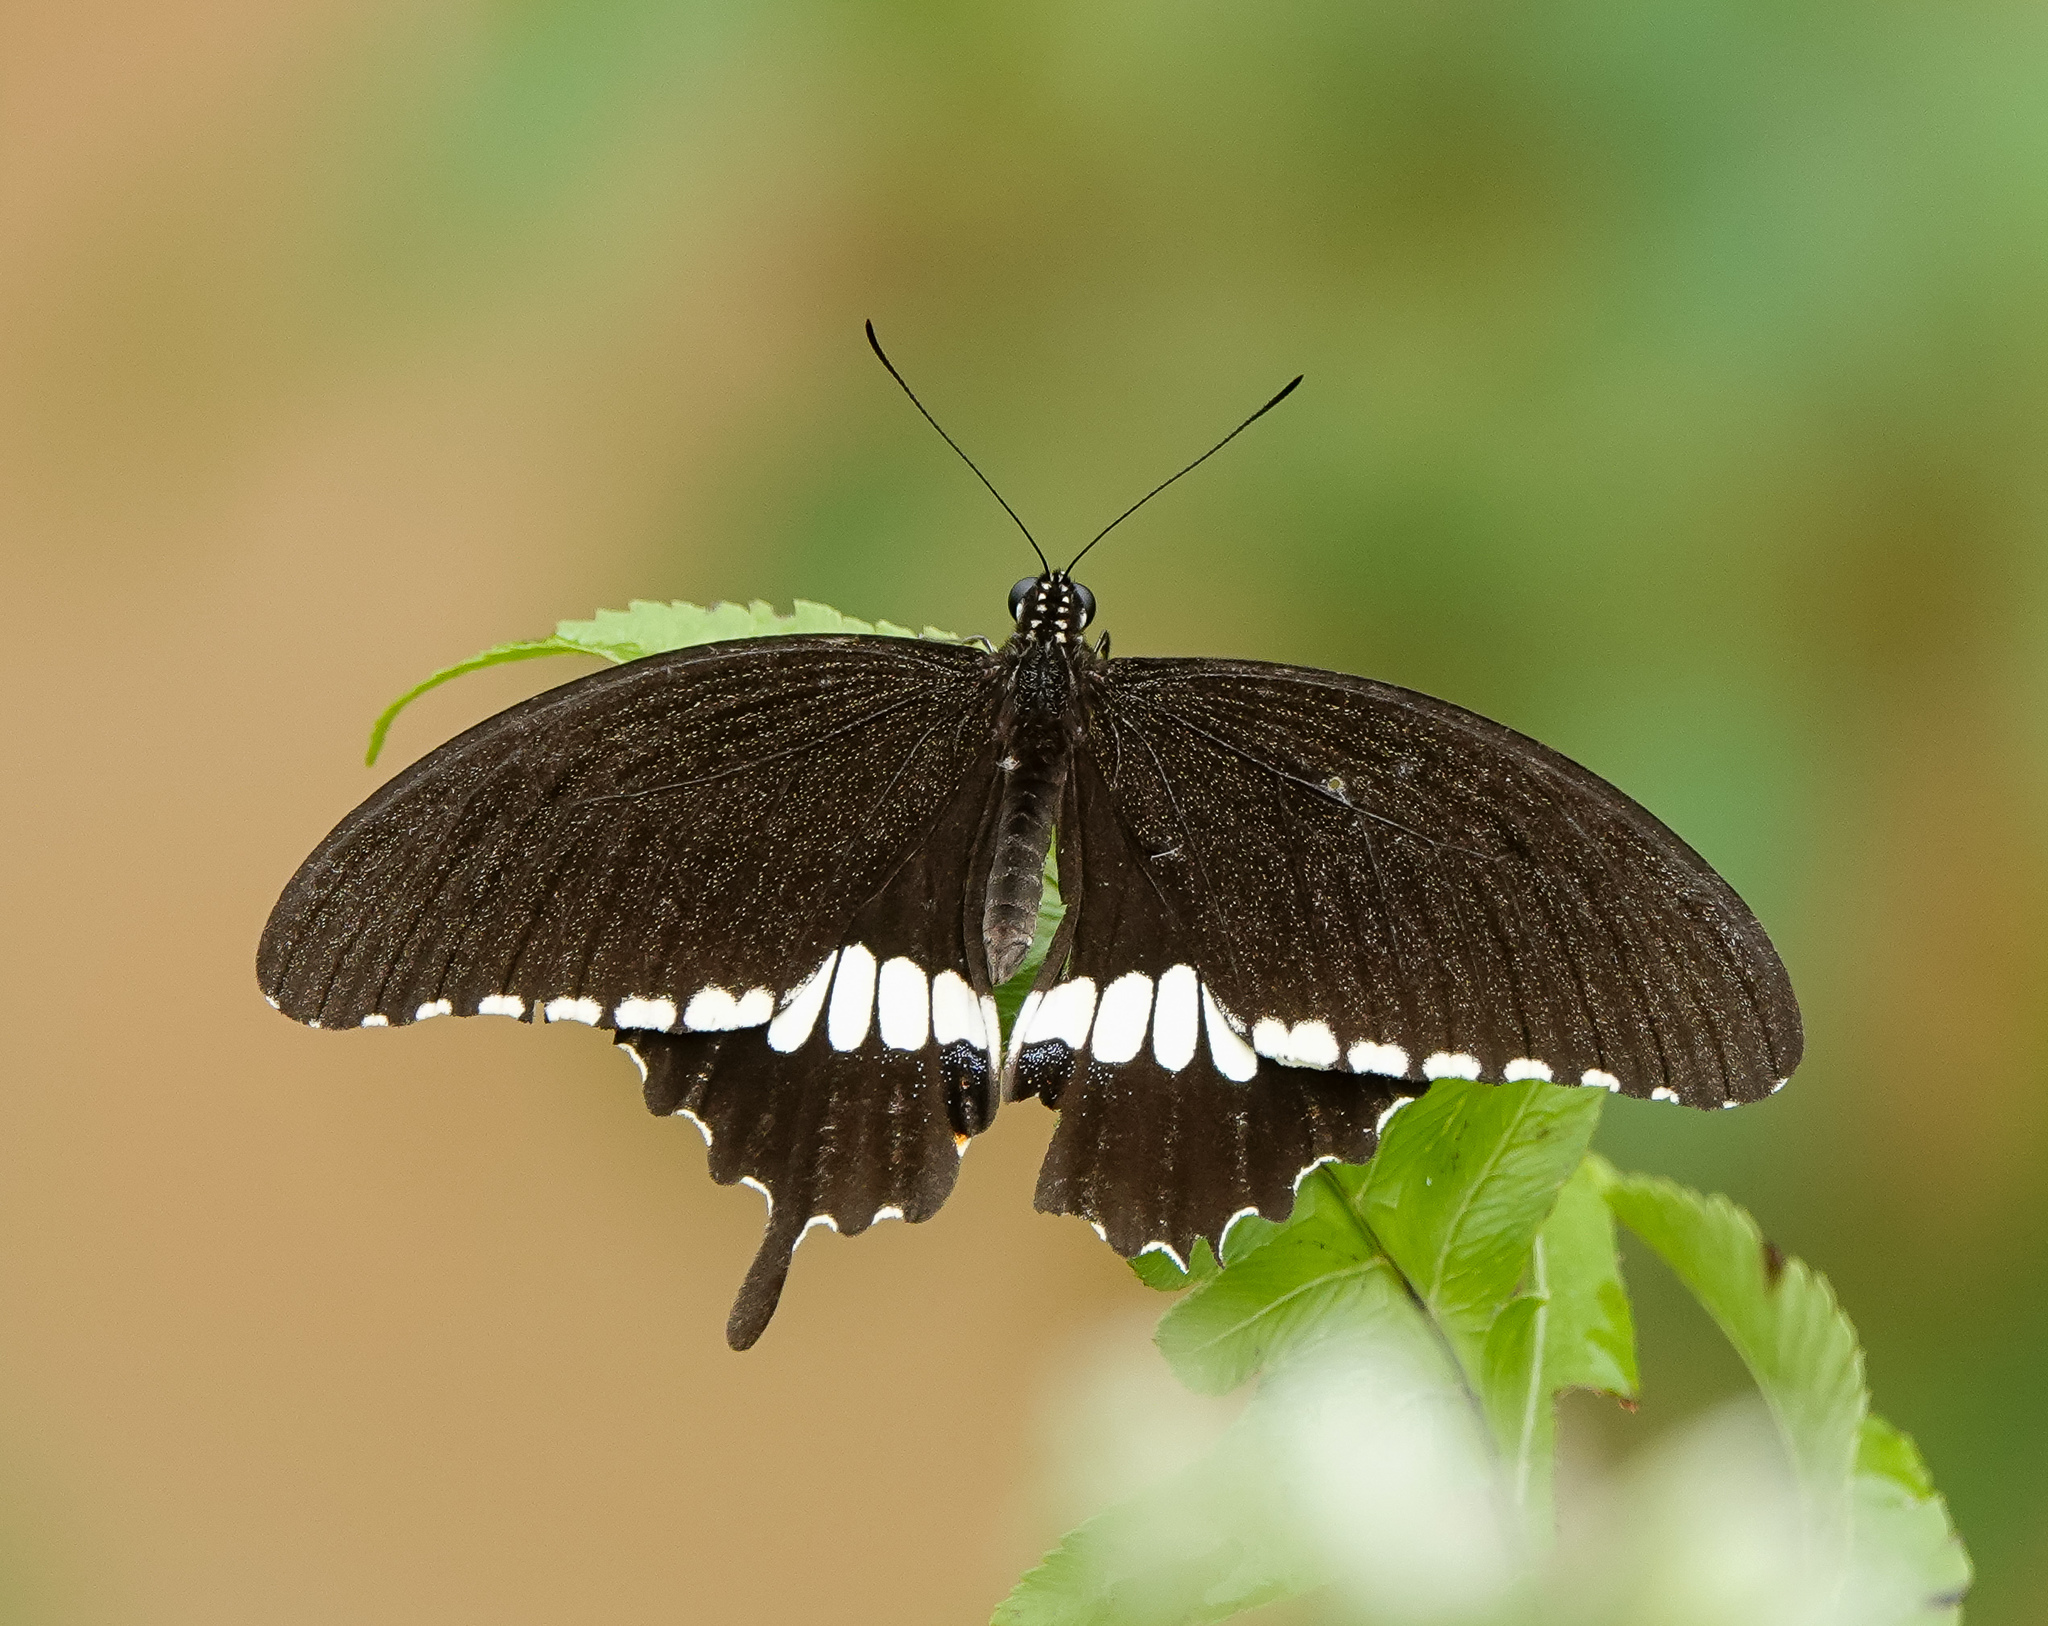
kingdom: Animalia
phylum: Arthropoda
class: Insecta
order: Lepidoptera
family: Papilionidae
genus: Papilio
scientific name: Papilio polytes
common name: Common mormon
